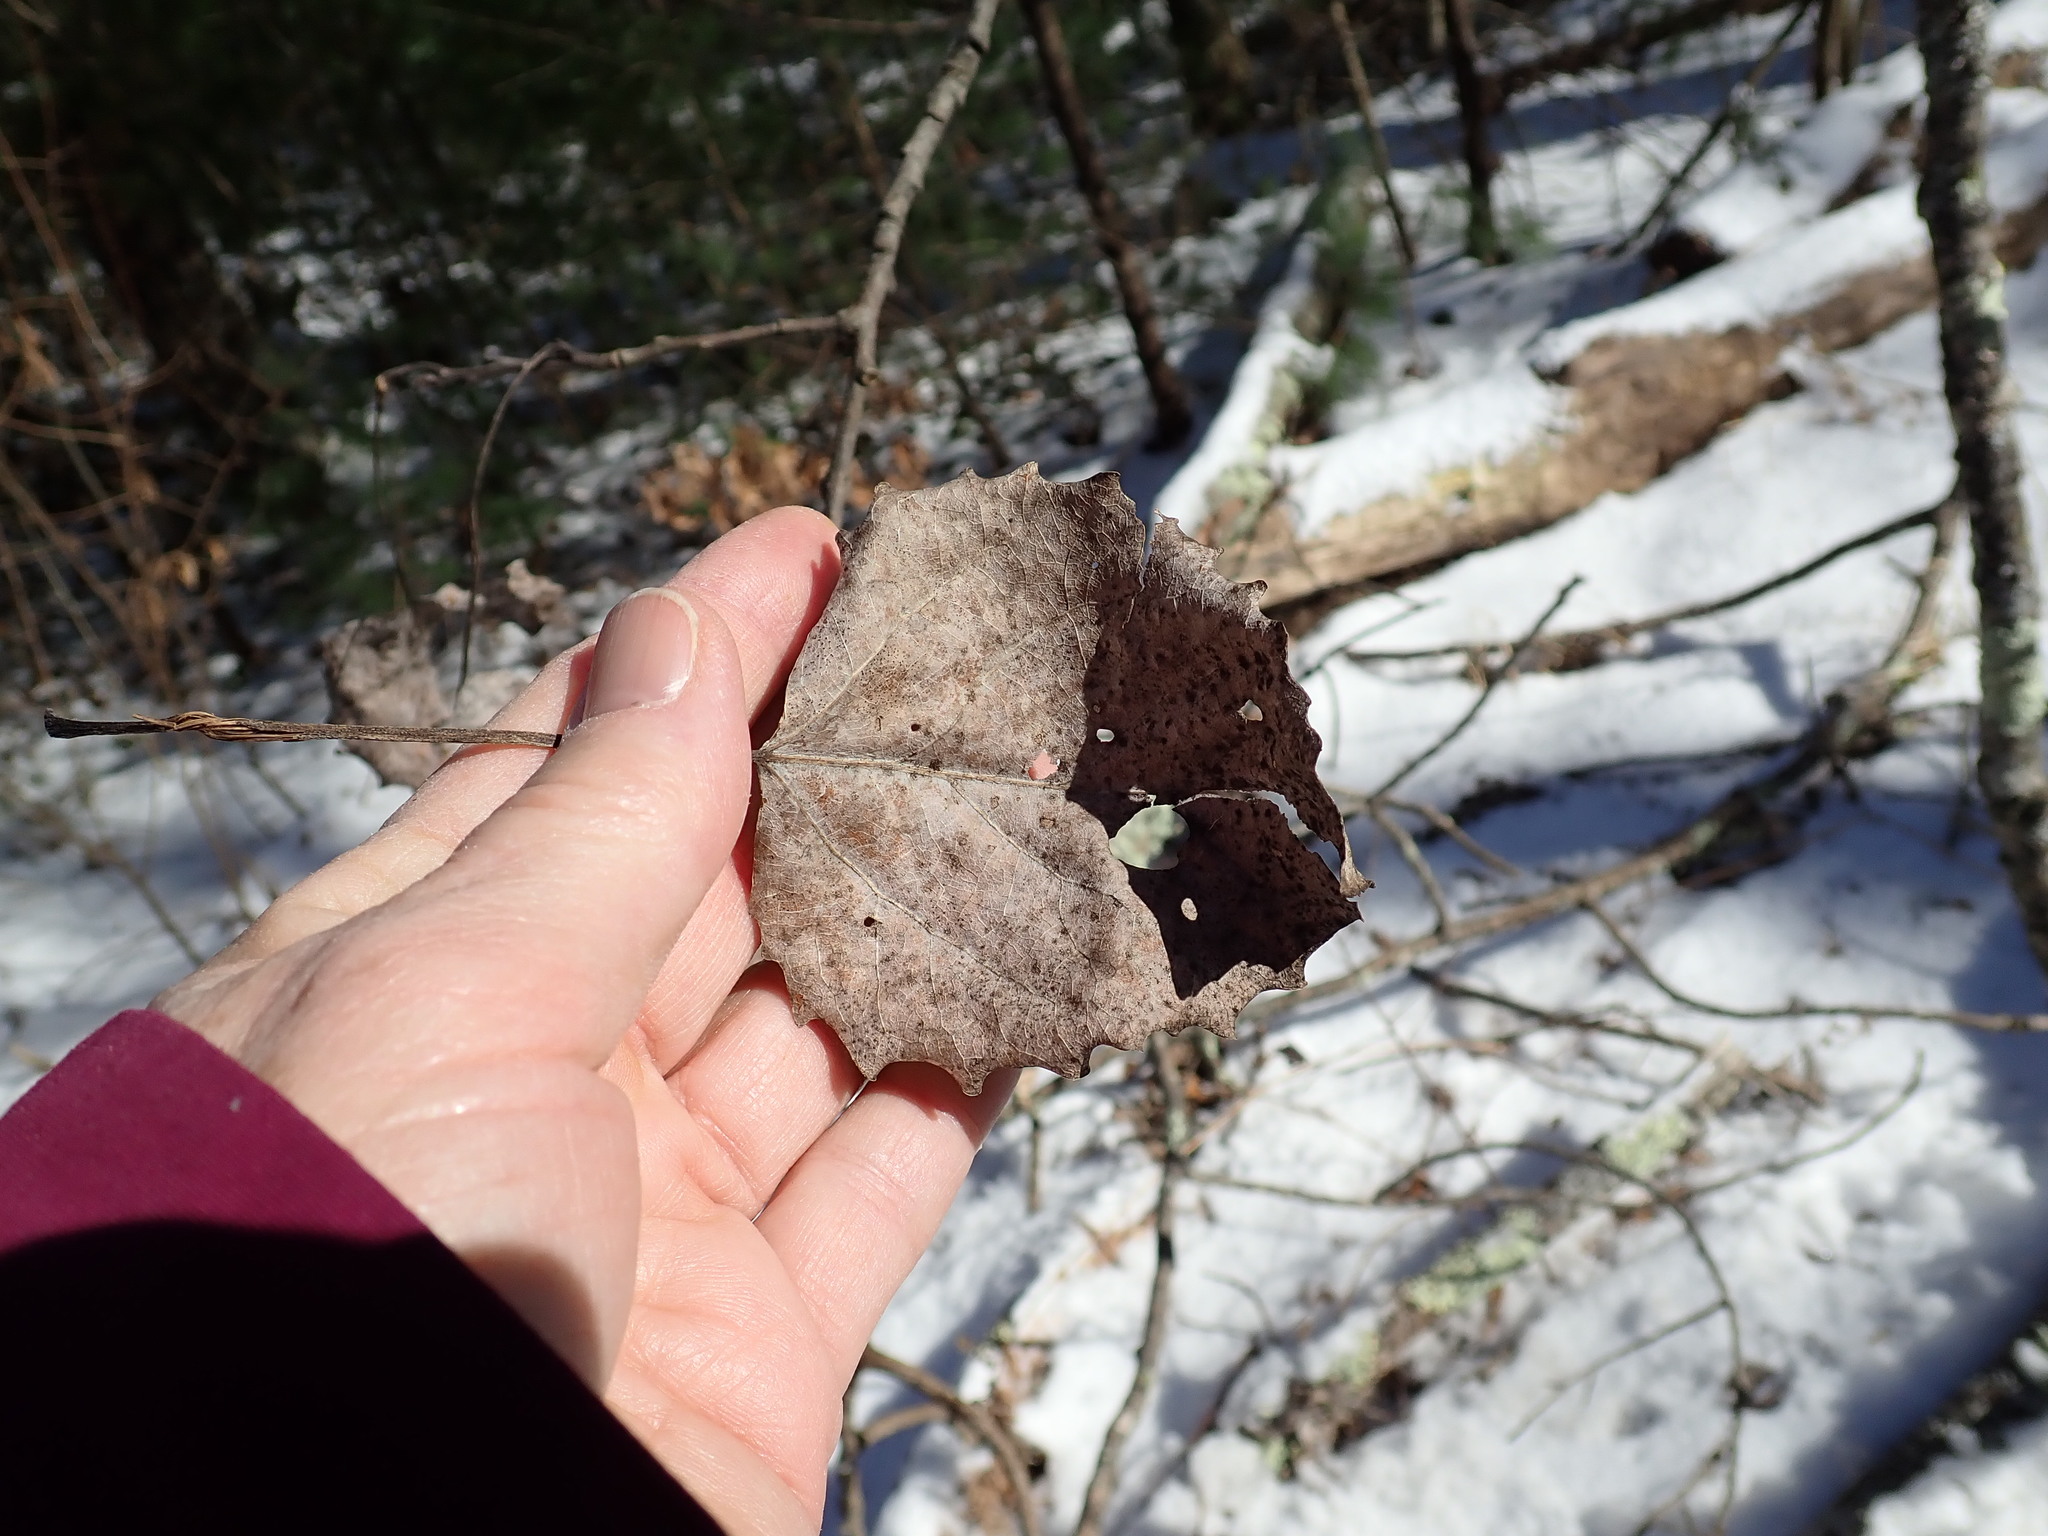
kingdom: Plantae
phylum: Tracheophyta
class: Magnoliopsida
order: Malpighiales
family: Salicaceae
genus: Populus
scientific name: Populus grandidentata
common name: Bigtooth aspen
